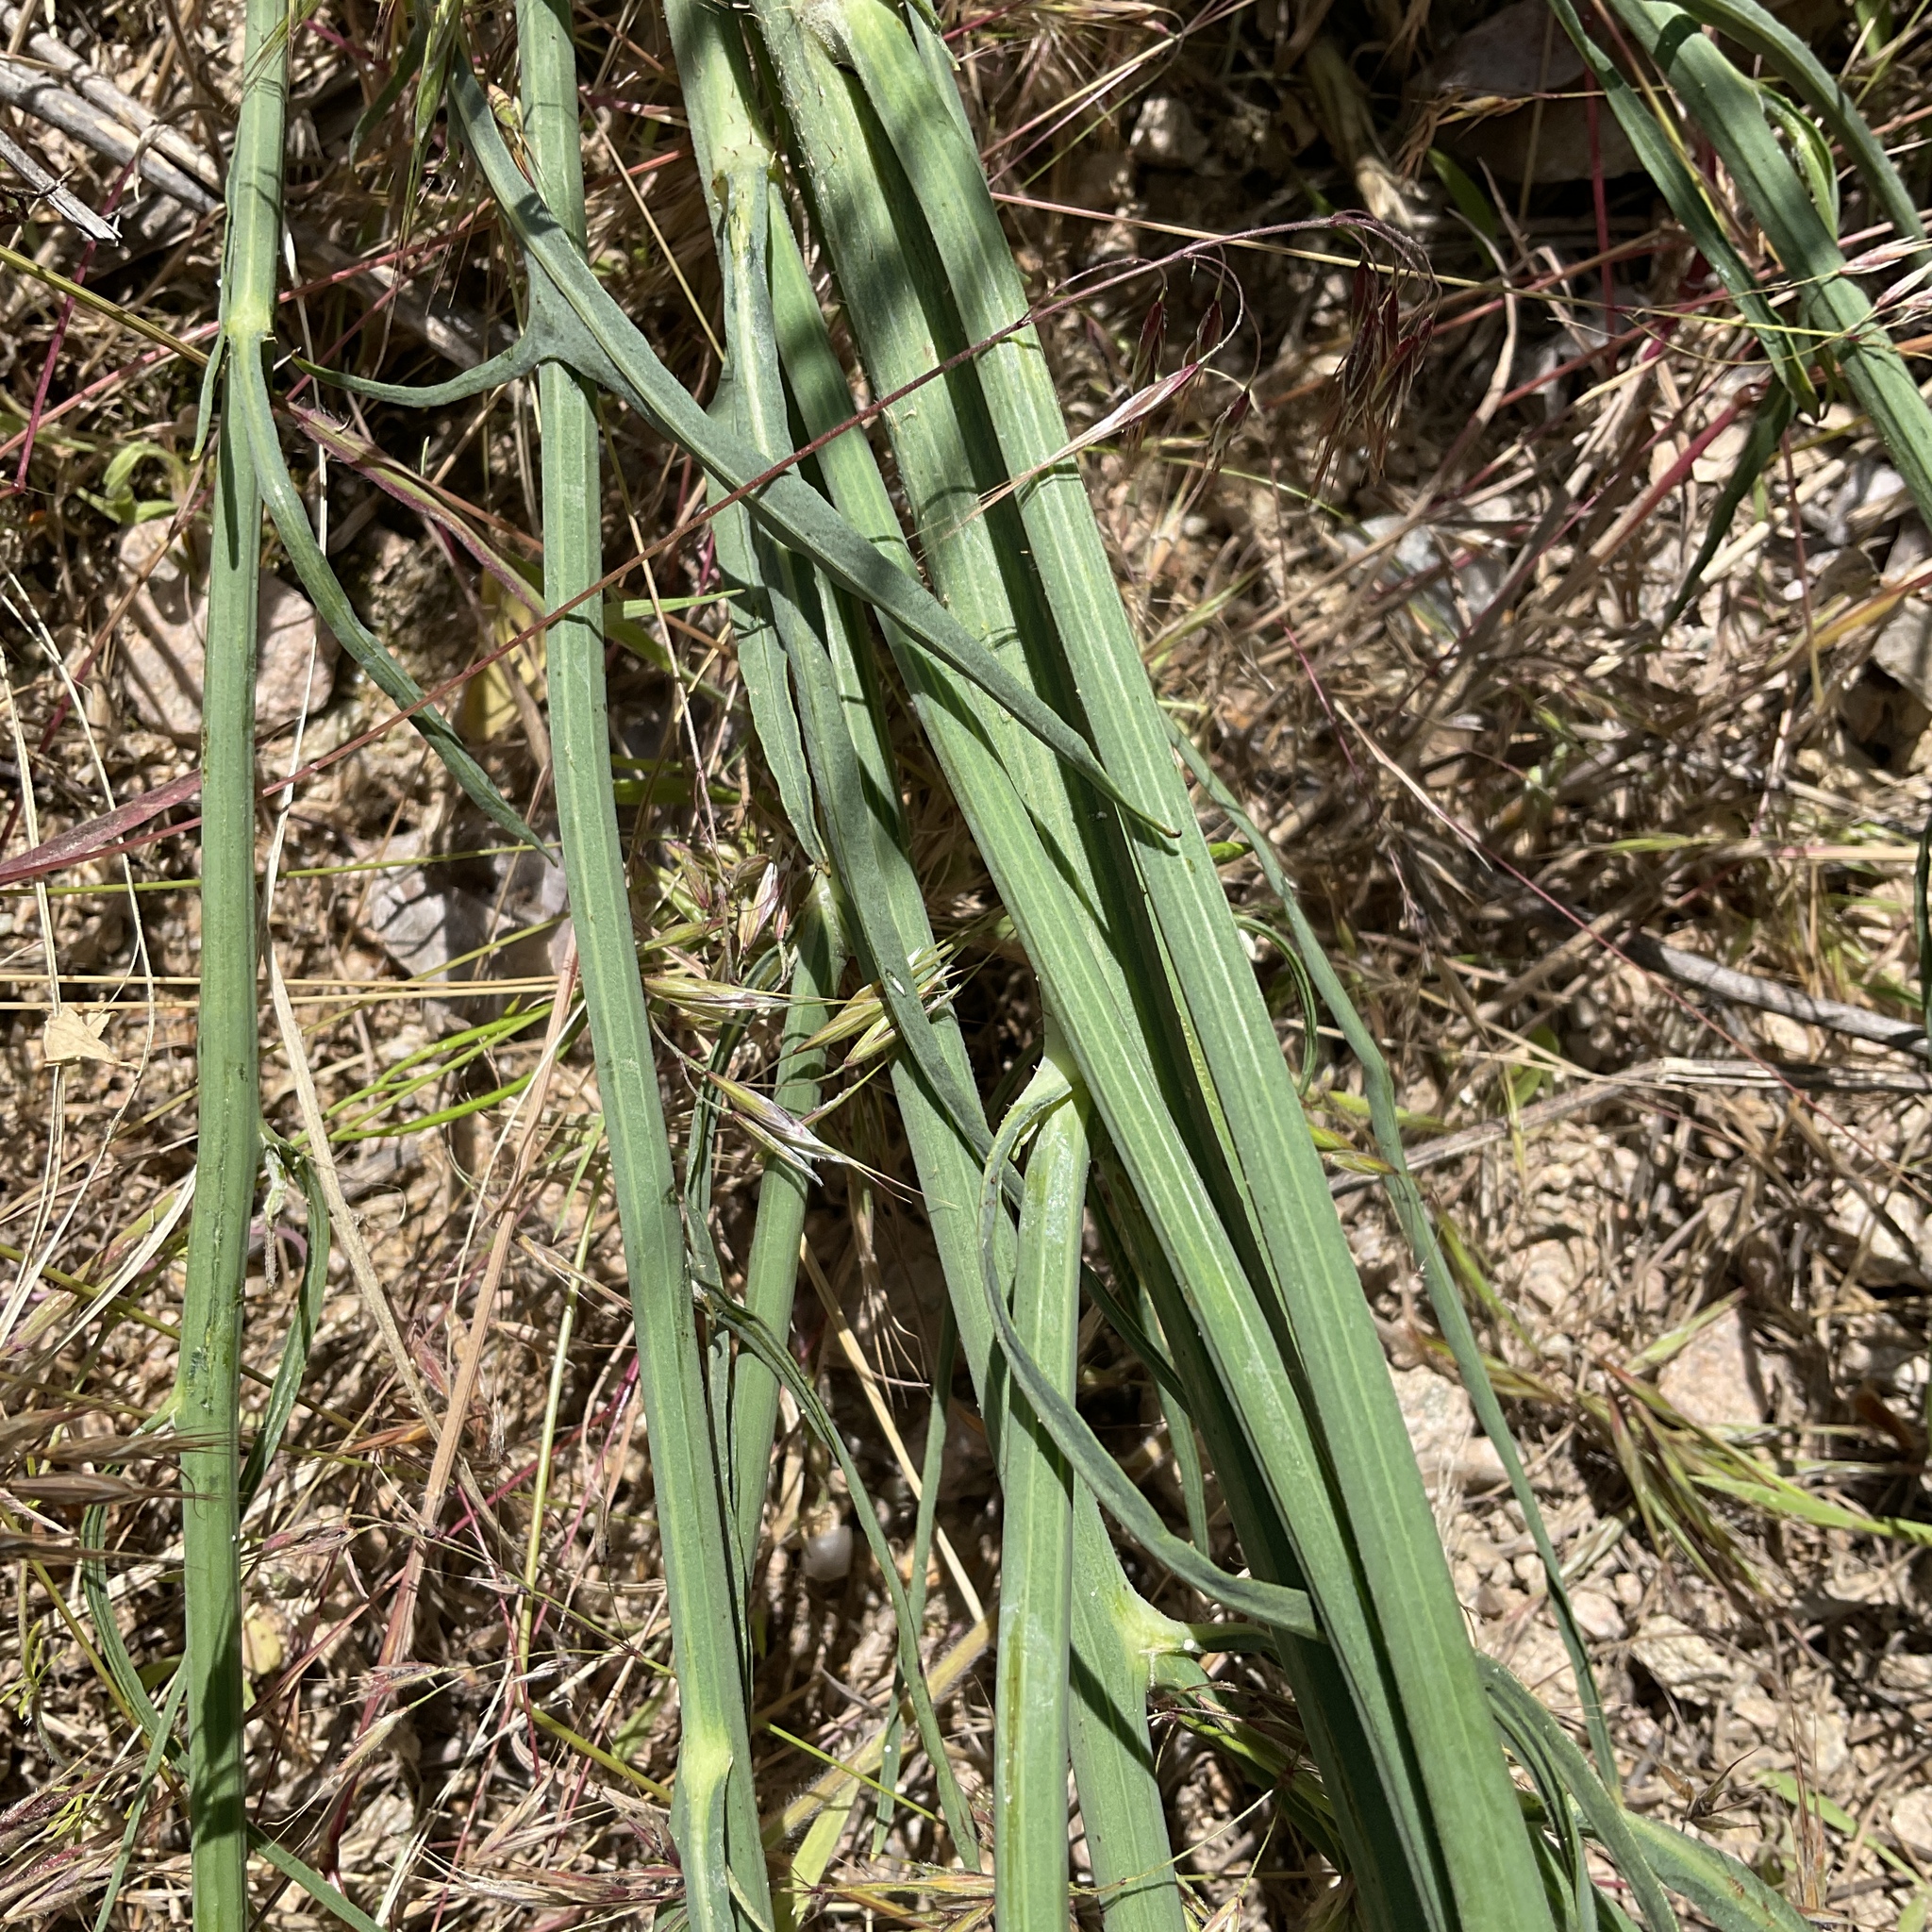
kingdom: Plantae
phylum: Tracheophyta
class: Magnoliopsida
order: Asterales
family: Asteraceae
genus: Chondrilla
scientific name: Chondrilla juncea
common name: Skeleton weed
